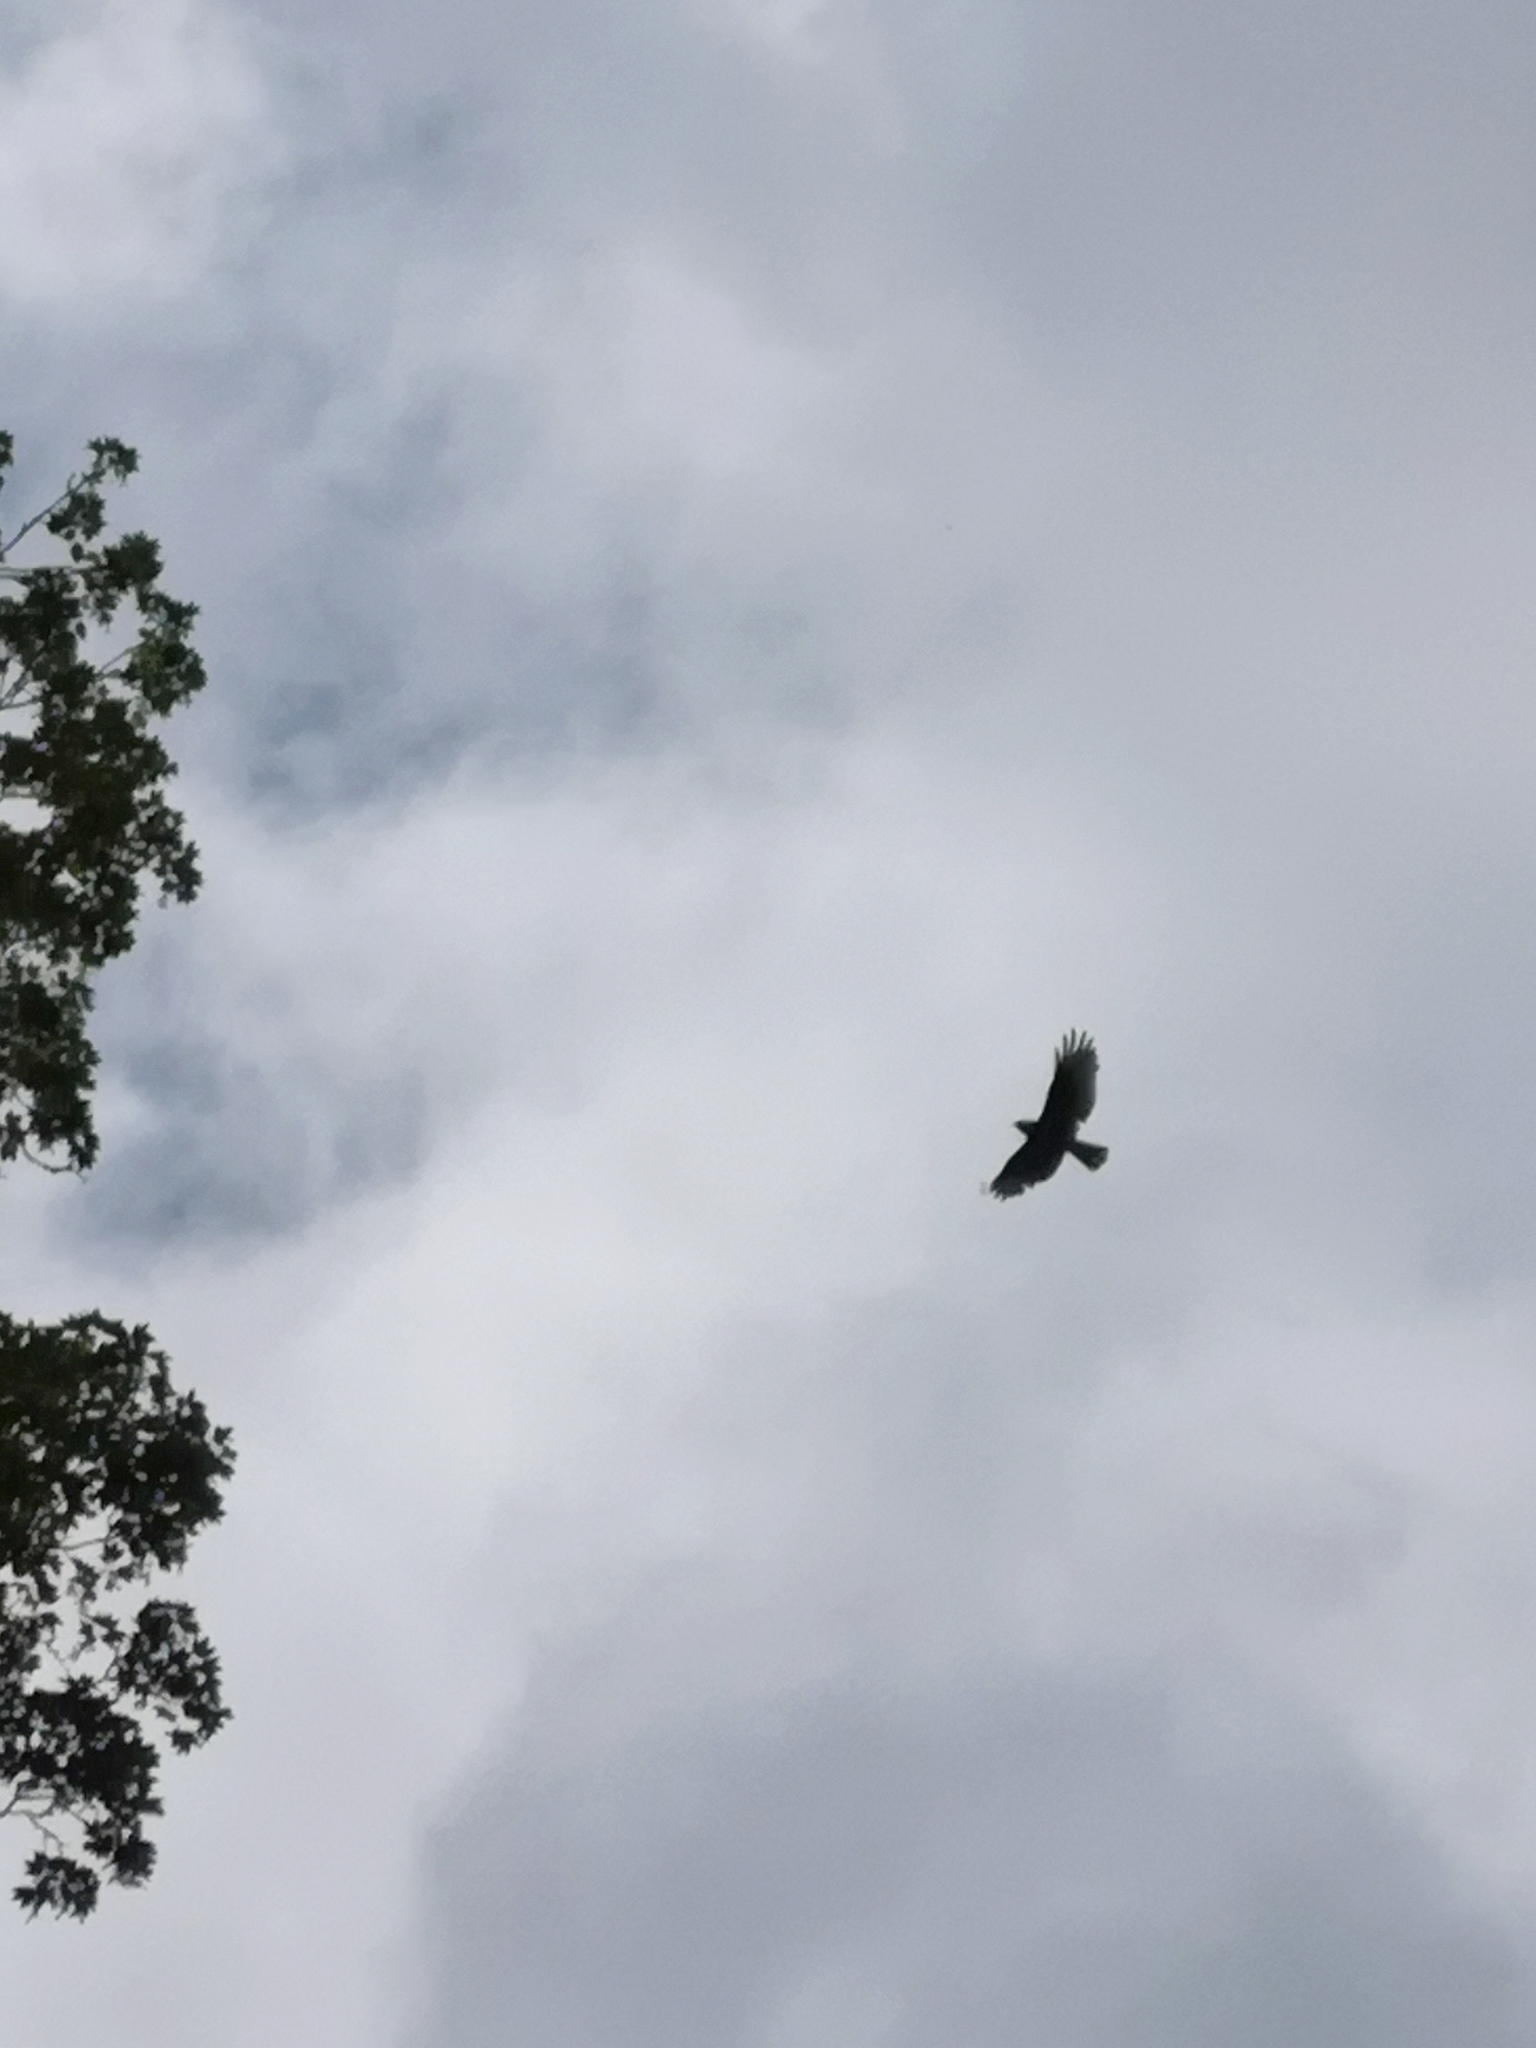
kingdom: Animalia
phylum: Chordata
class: Aves
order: Accipitriformes
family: Accipitridae
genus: Pernis
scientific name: Pernis apivorus
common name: European honey buzzard
